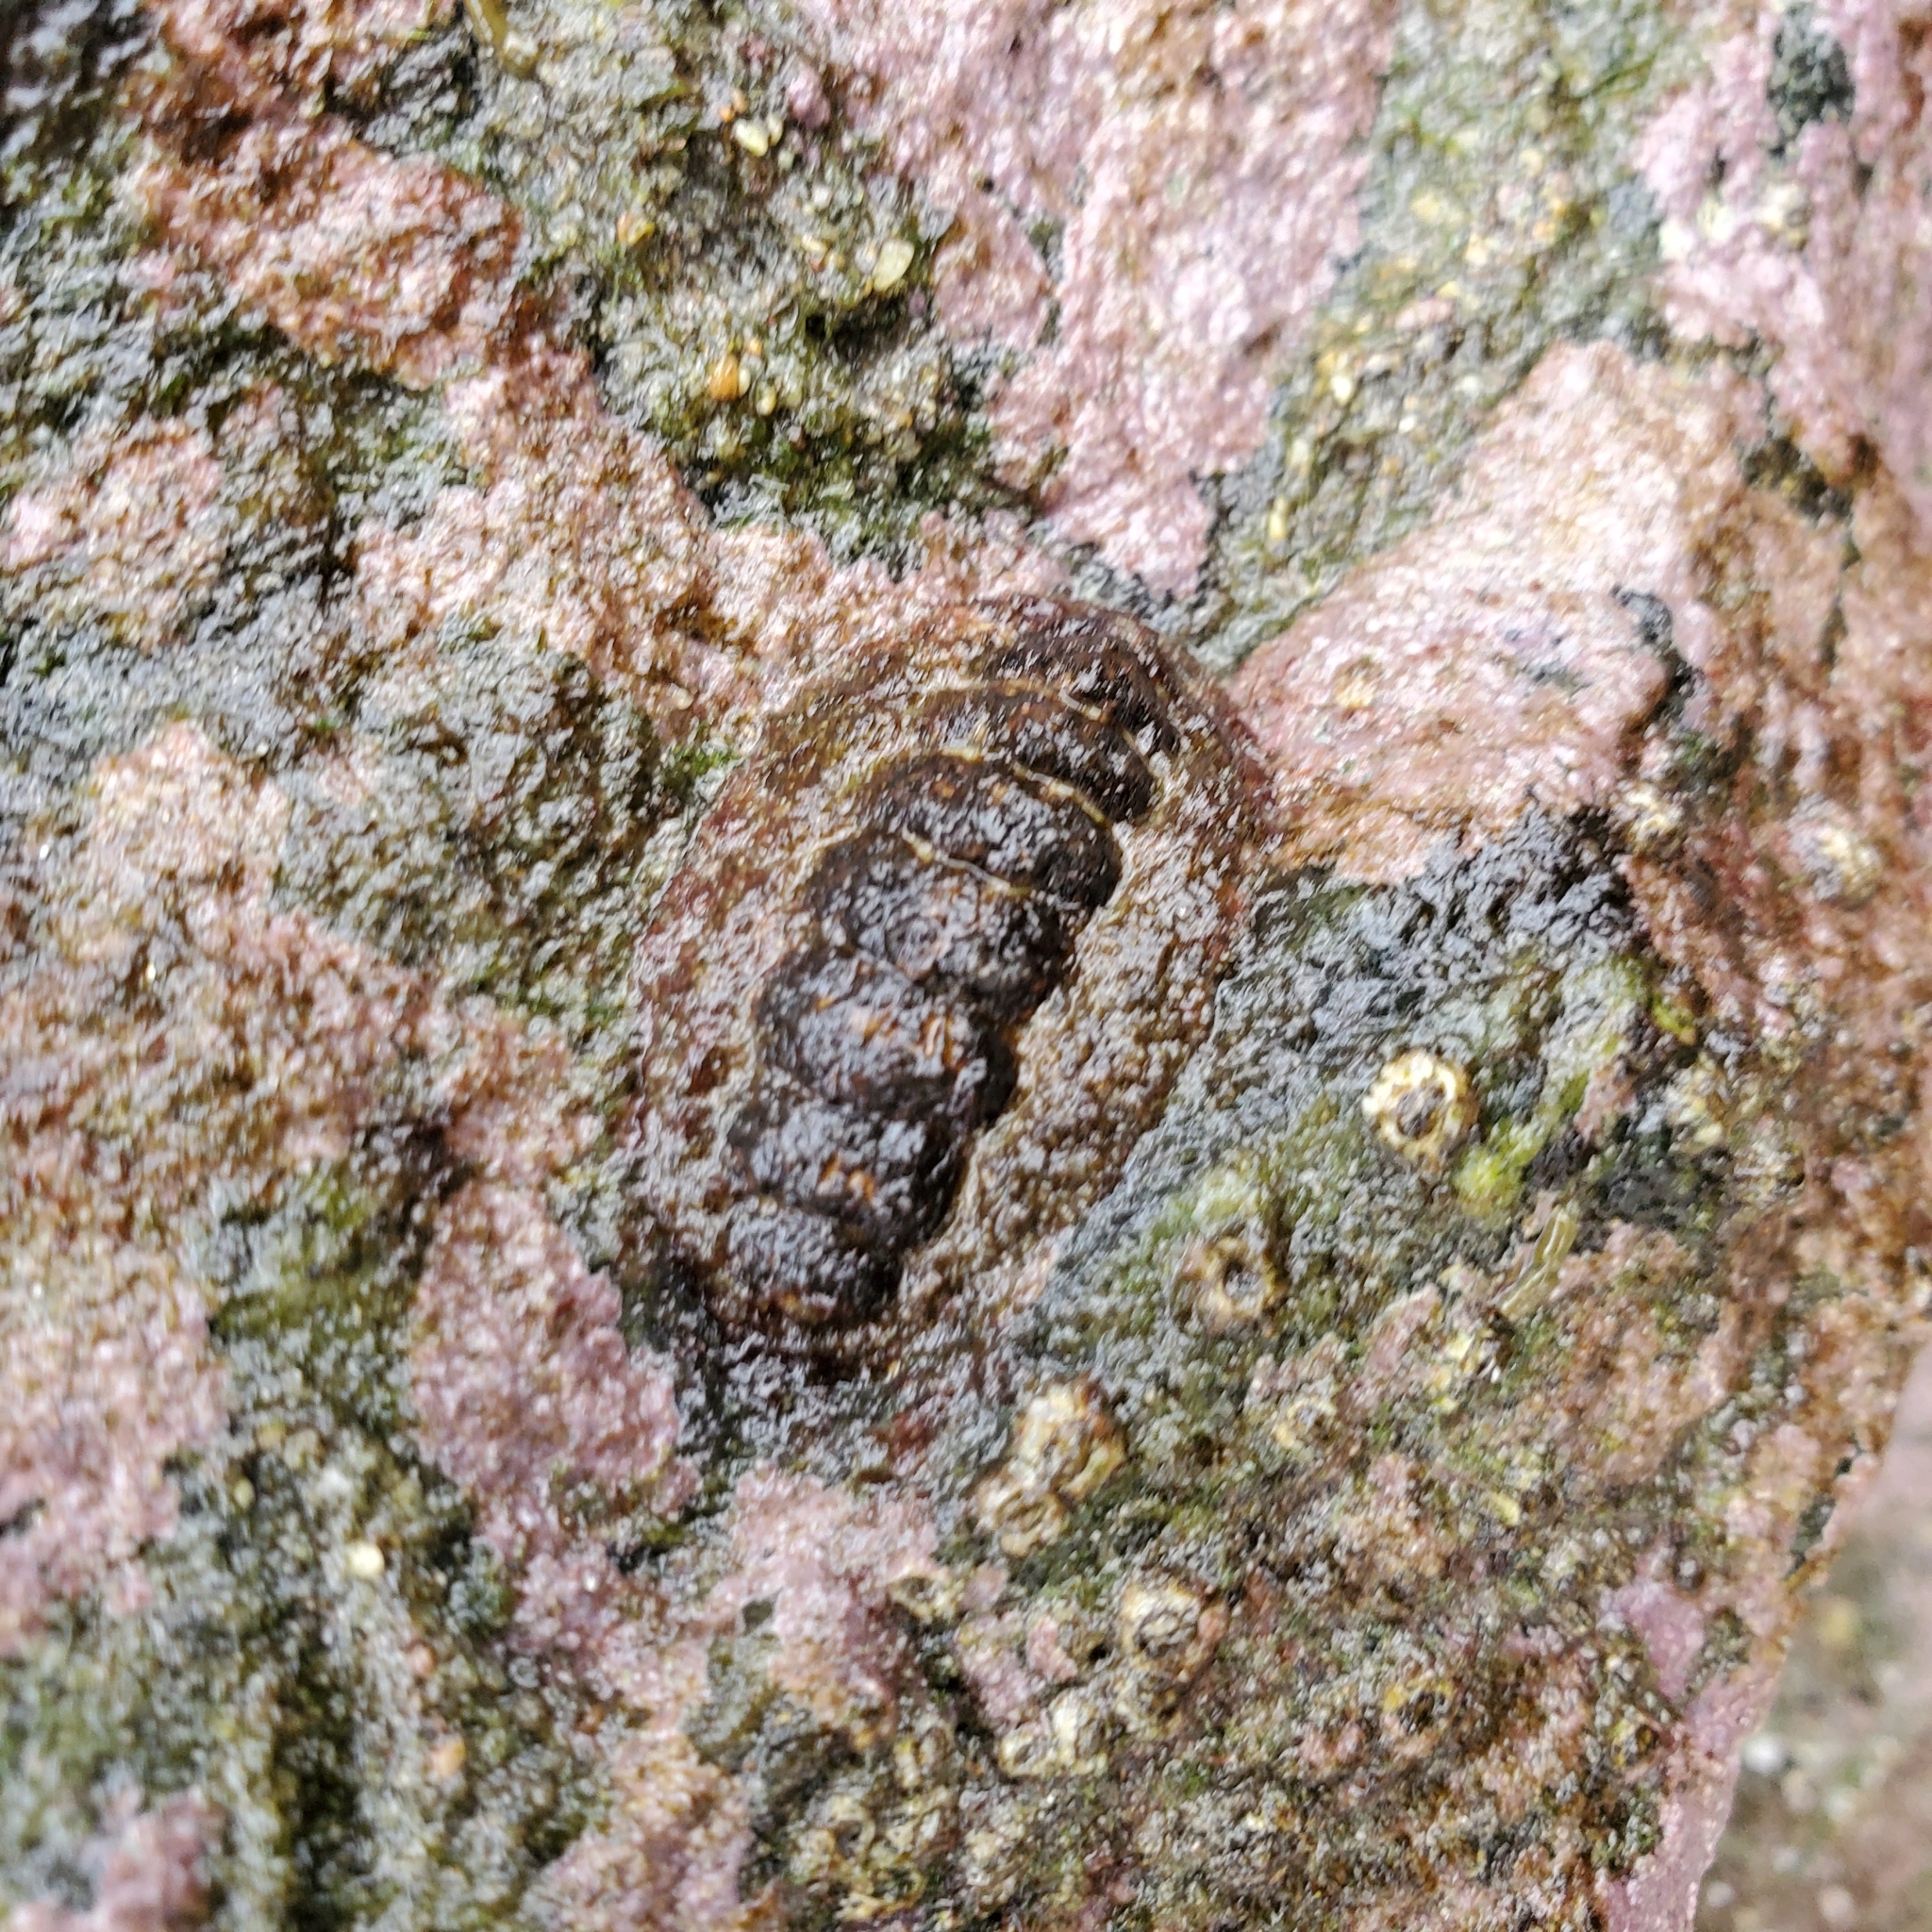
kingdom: Animalia
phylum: Mollusca
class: Polyplacophora
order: Chitonida
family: Tonicellidae
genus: Nuttallina
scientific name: Nuttallina californica
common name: California nuttall chiton
